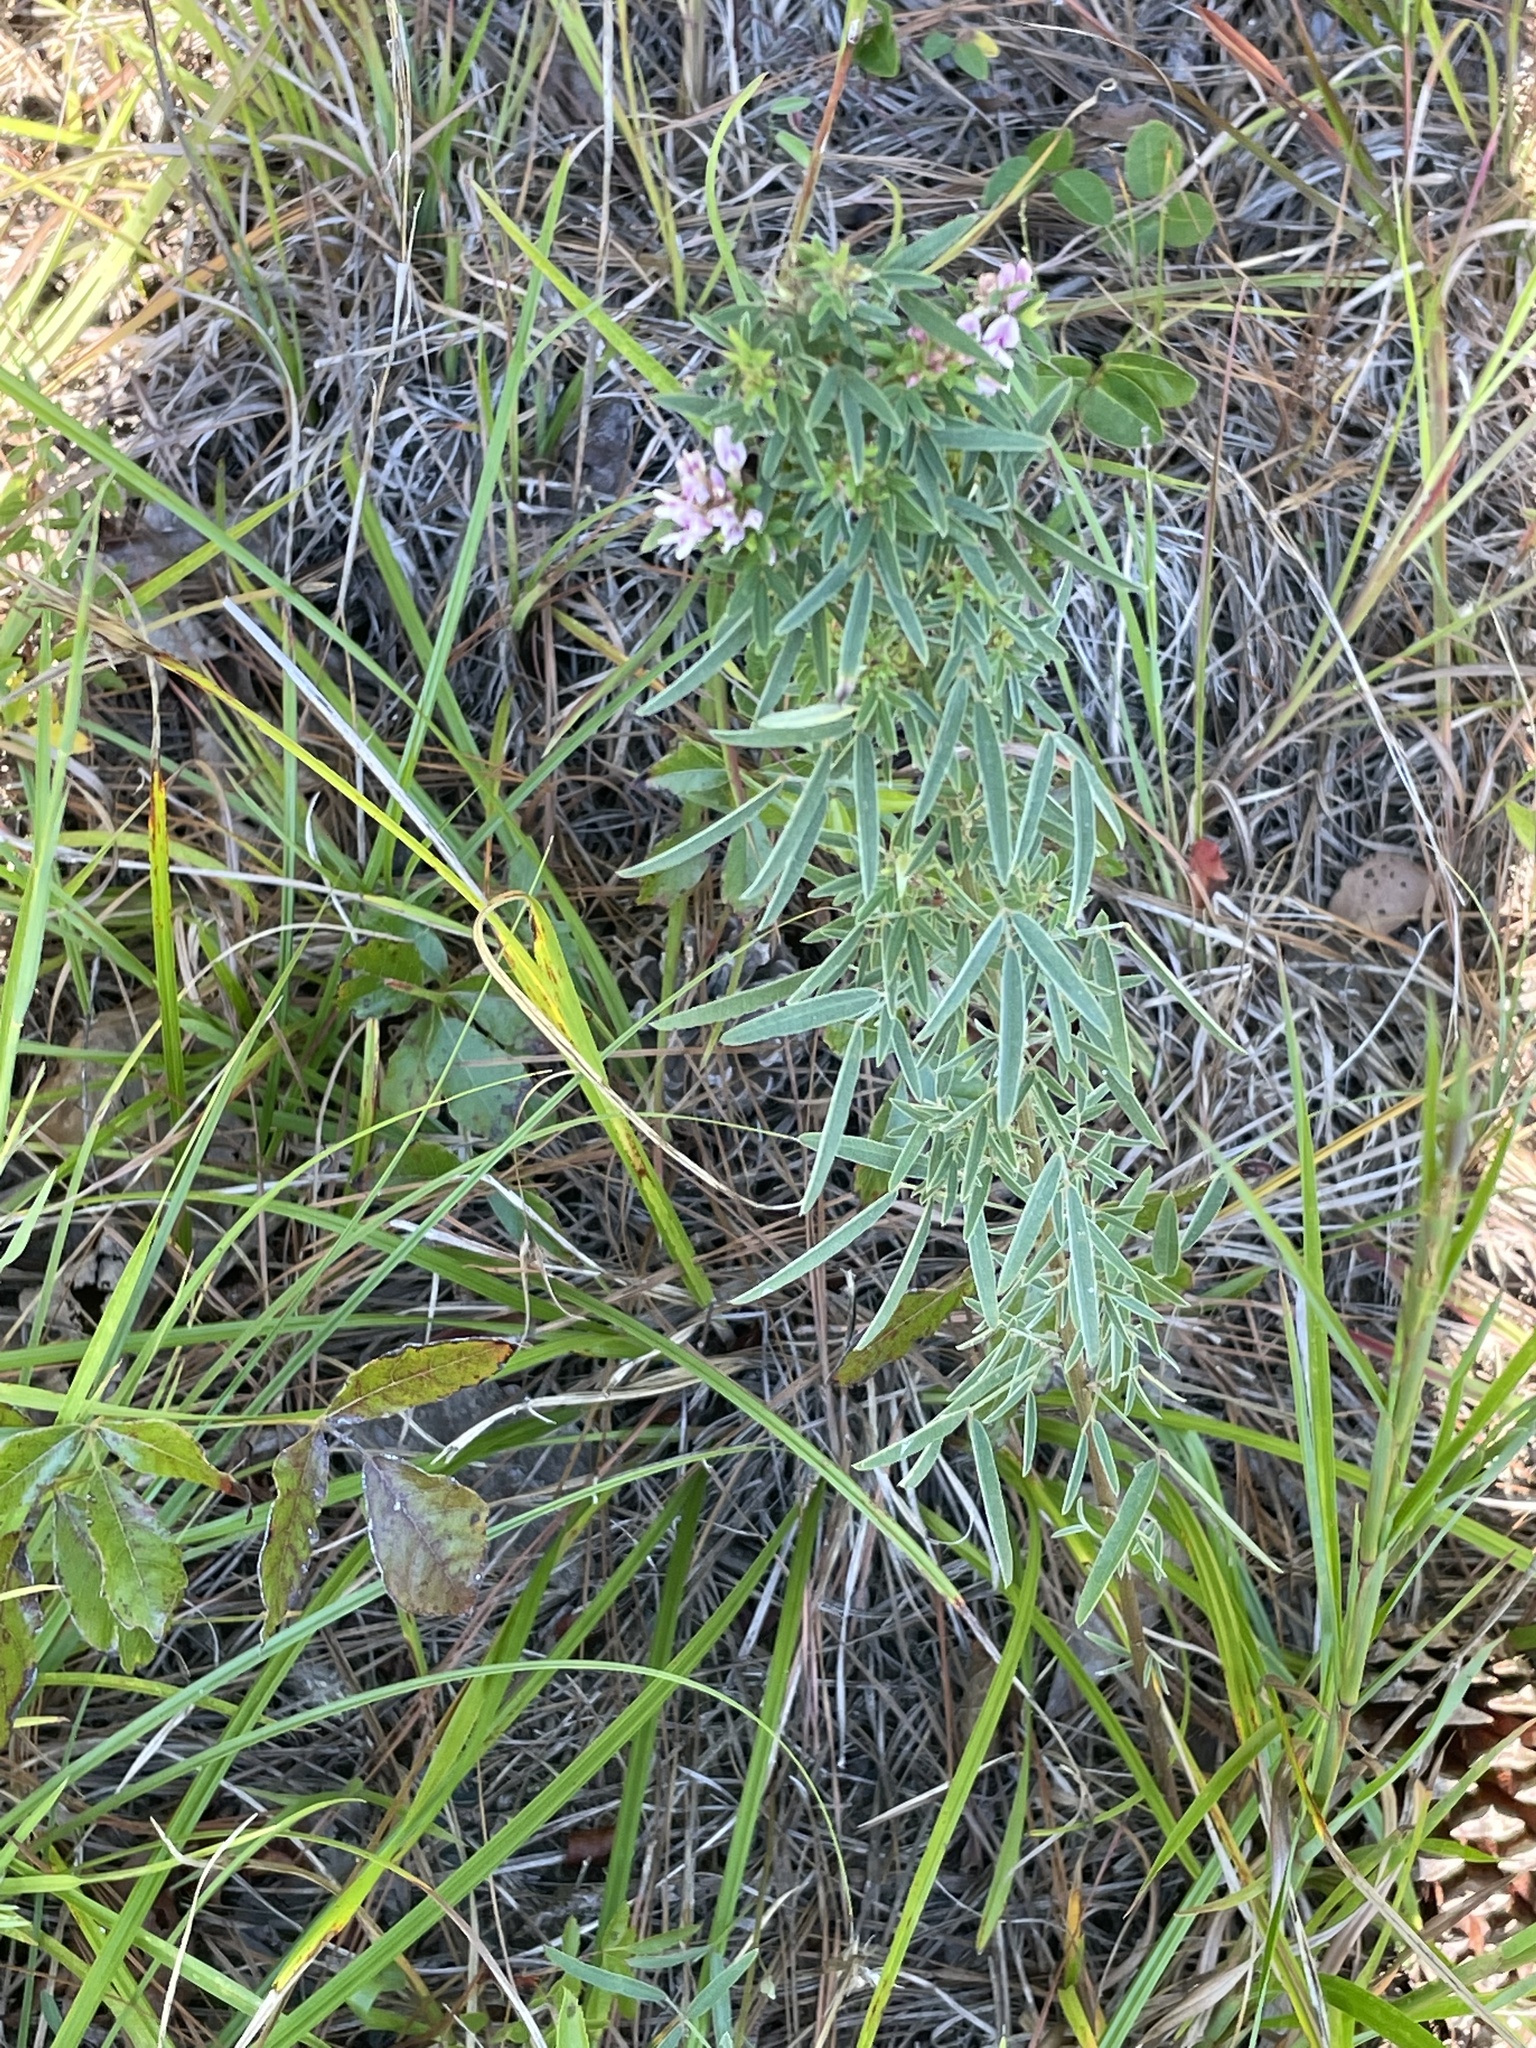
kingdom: Plantae
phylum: Tracheophyta
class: Magnoliopsida
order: Fabales
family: Fabaceae
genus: Lespedeza
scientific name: Lespedeza virginica
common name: Slender bush-clover
